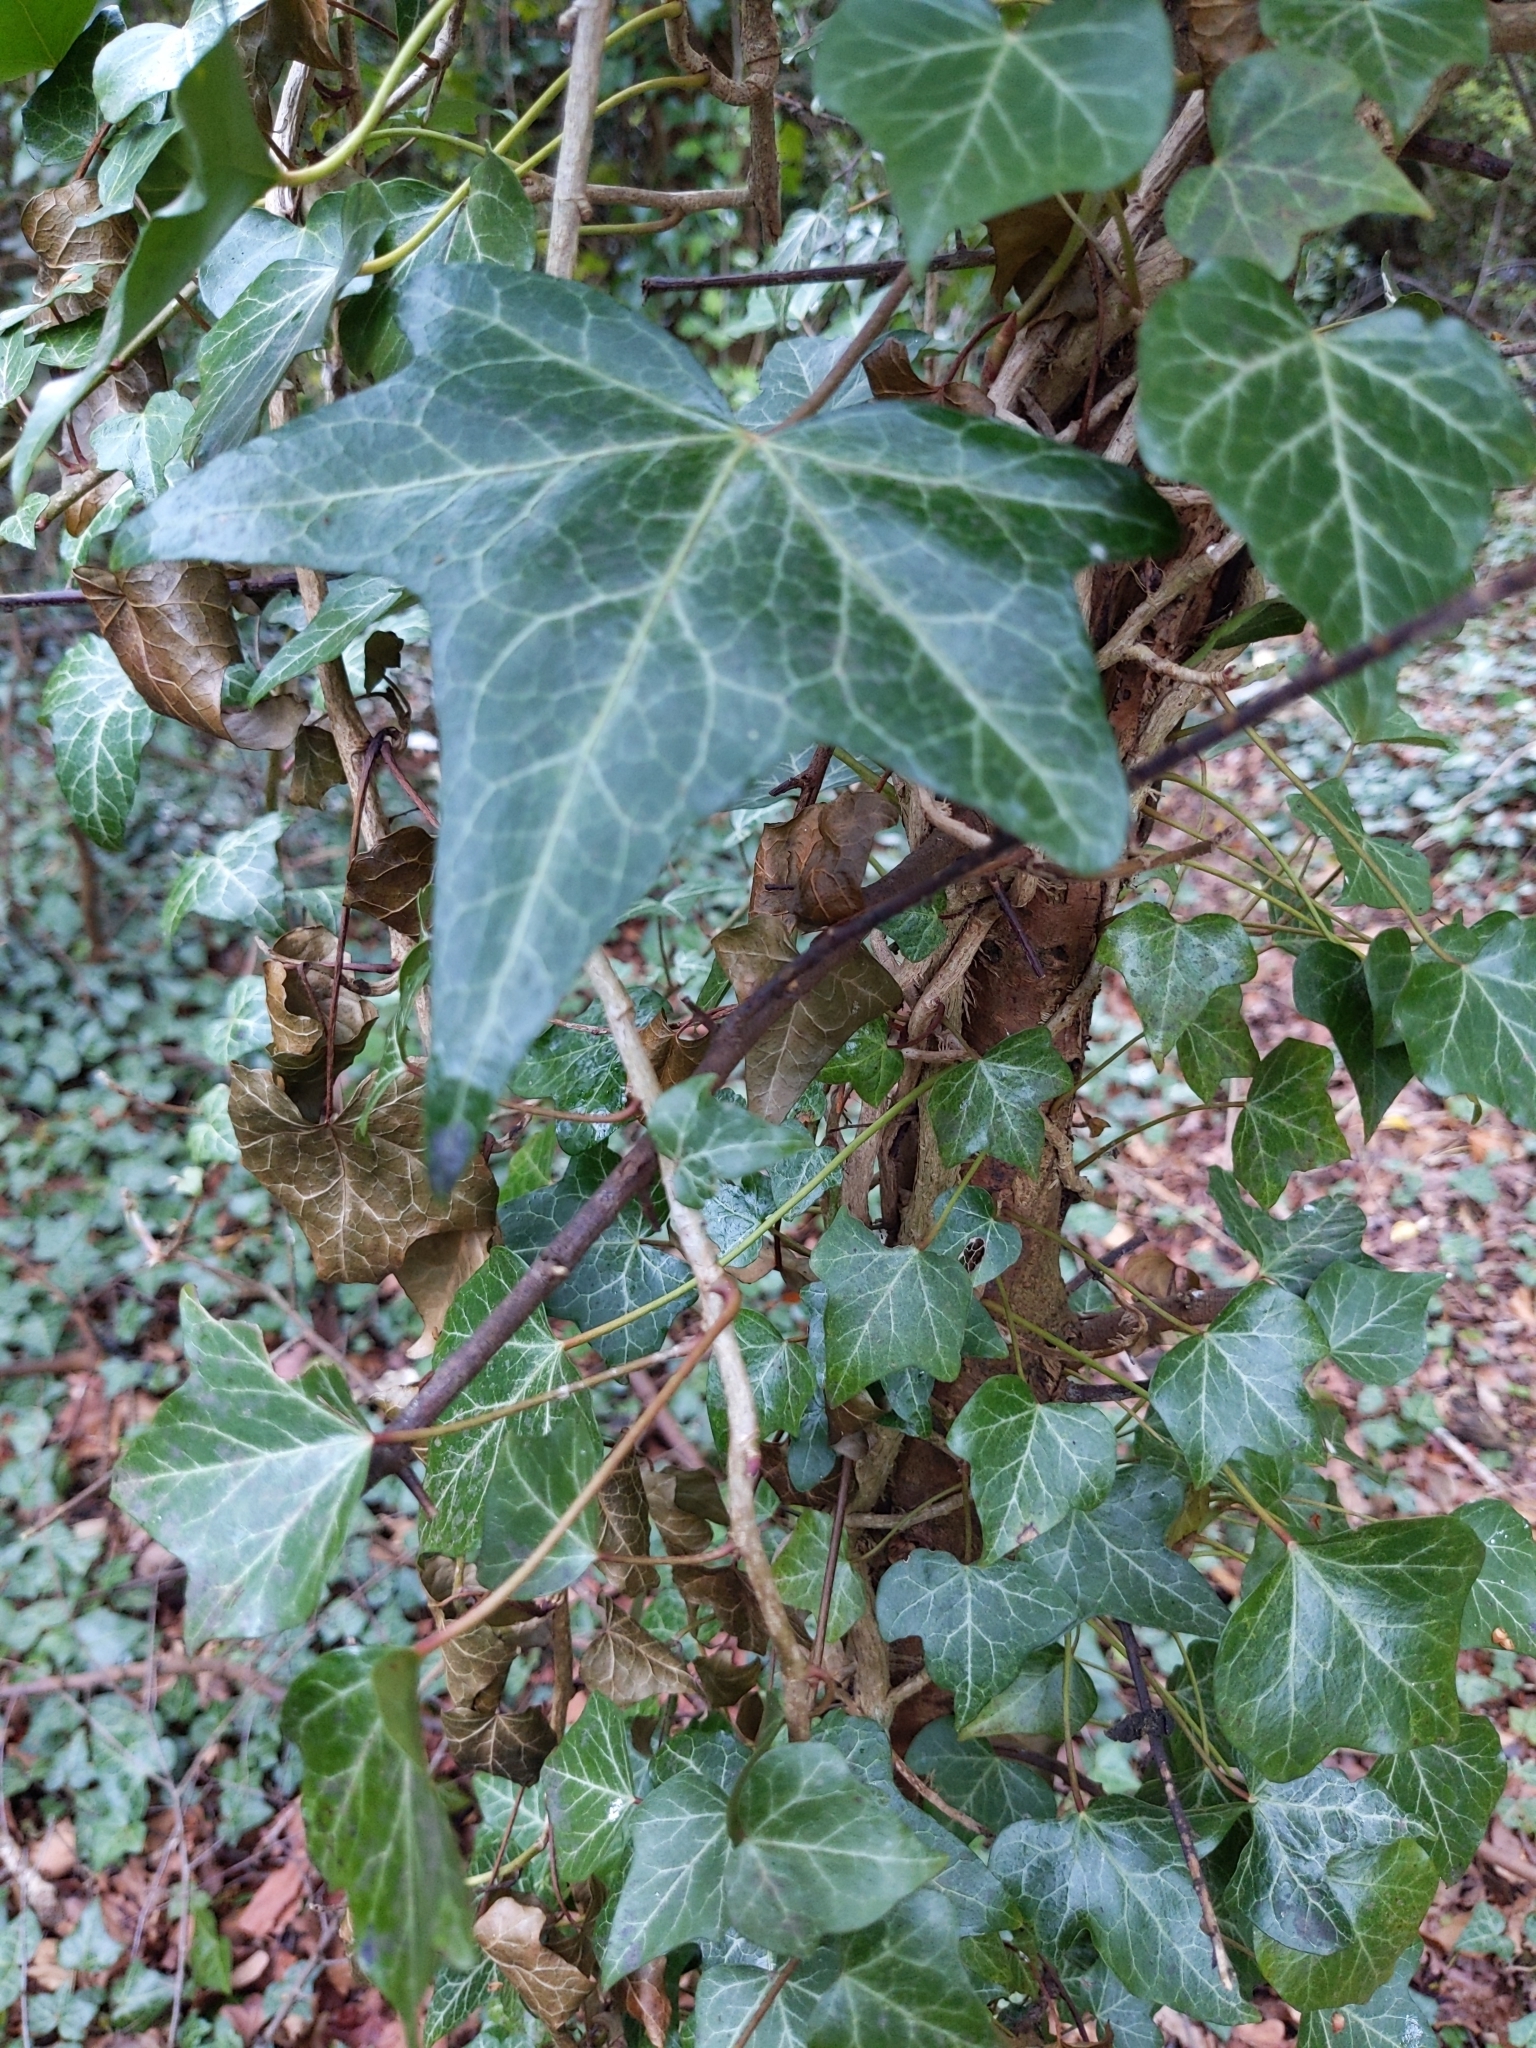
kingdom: Plantae
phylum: Tracheophyta
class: Magnoliopsida
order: Apiales
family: Araliaceae
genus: Hedera
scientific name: Hedera helix
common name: Ivy
